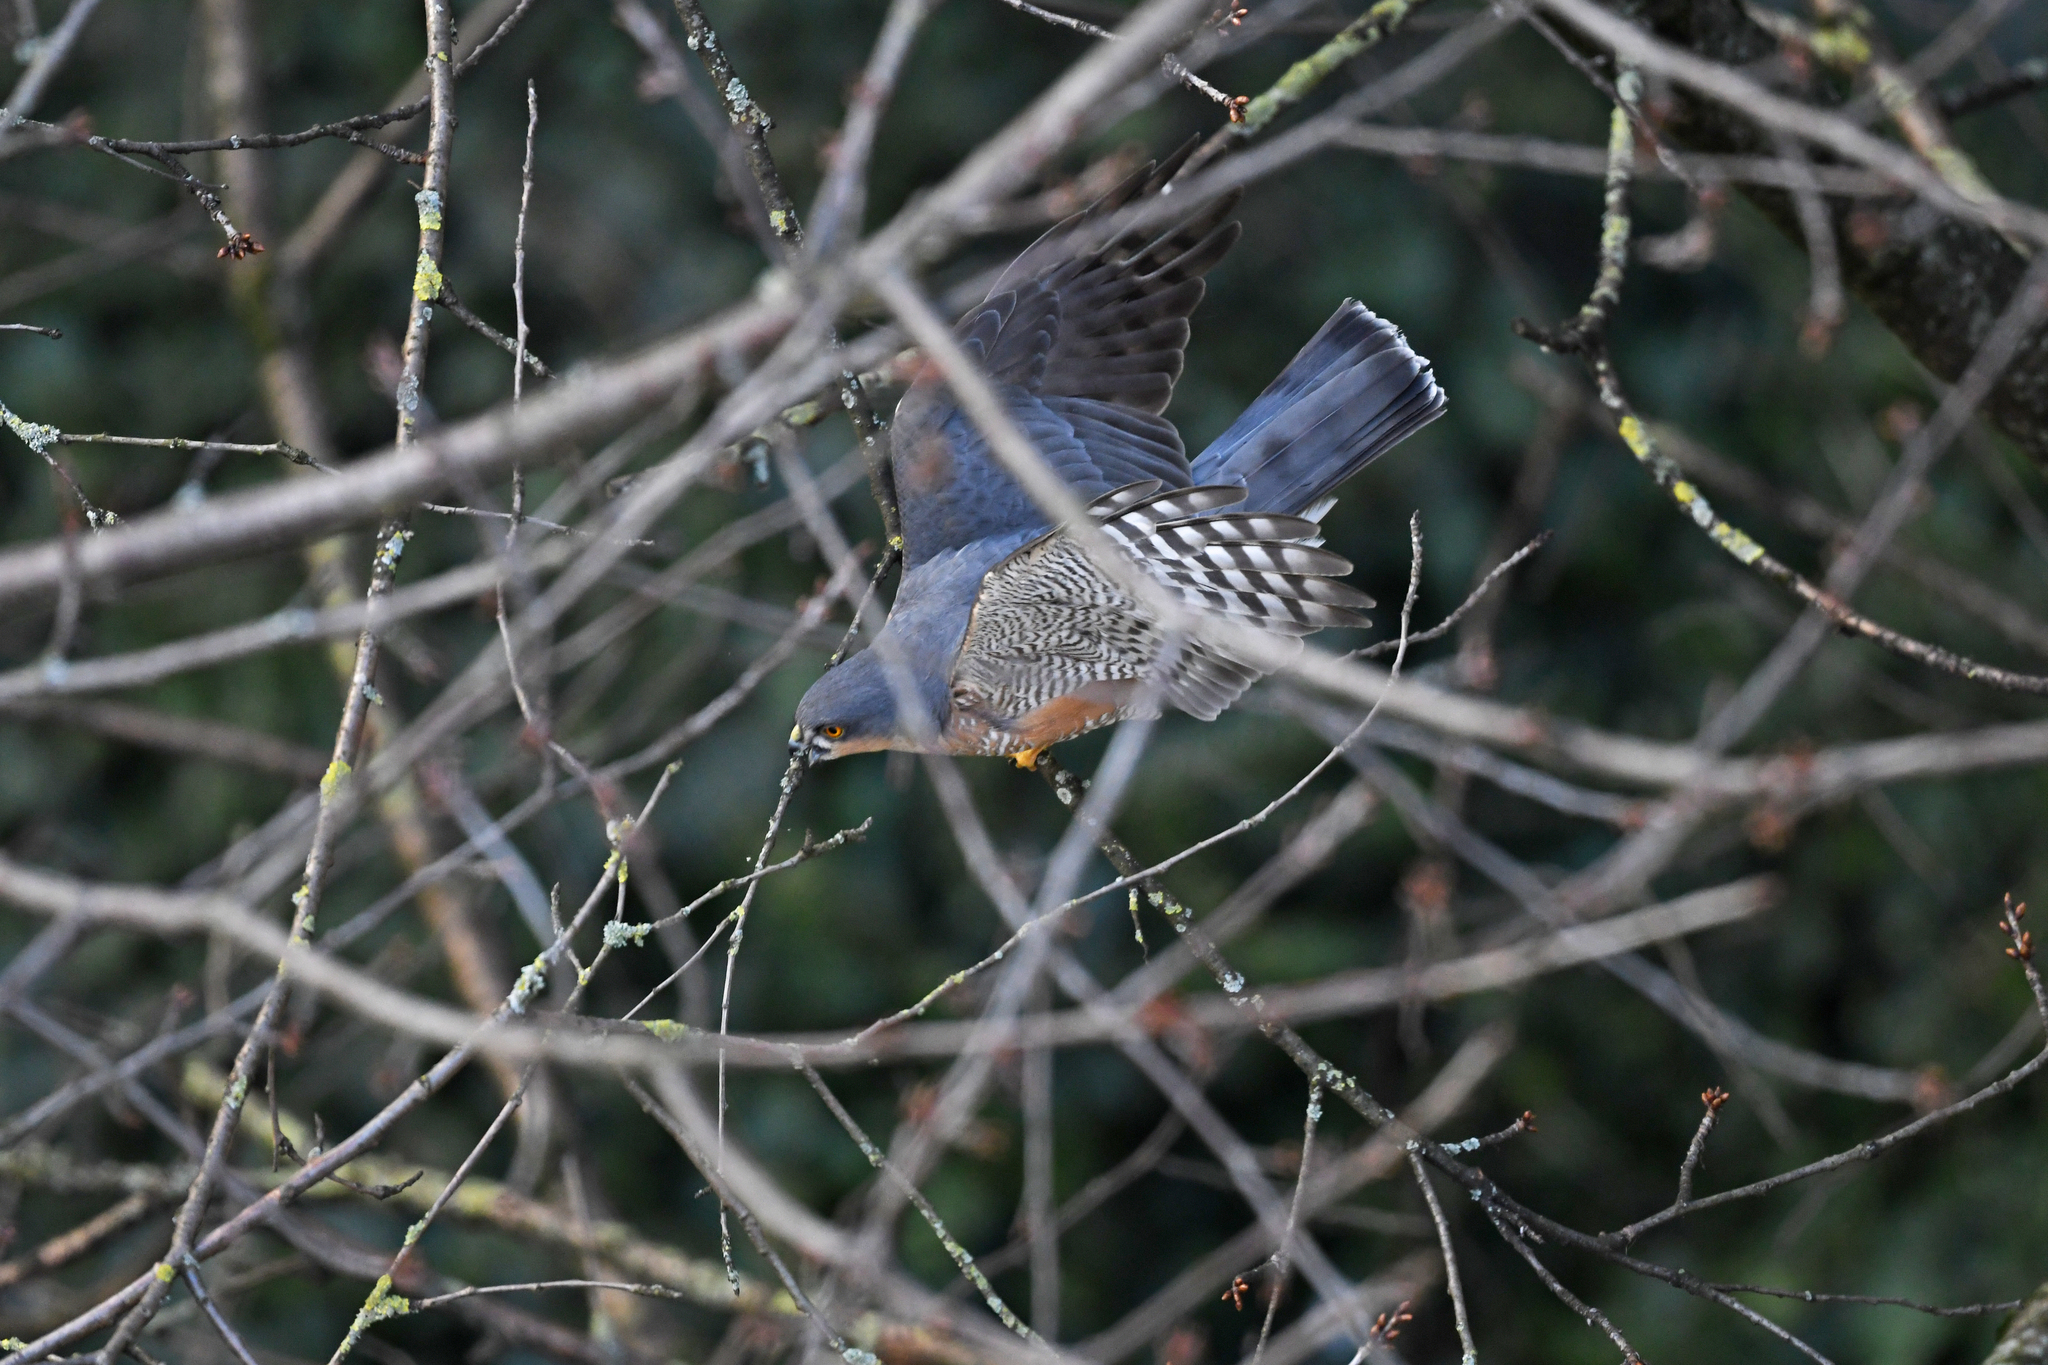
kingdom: Animalia
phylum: Chordata
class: Aves
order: Accipitriformes
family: Accipitridae
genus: Accipiter
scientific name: Accipiter nisus
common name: Eurasian sparrowhawk
